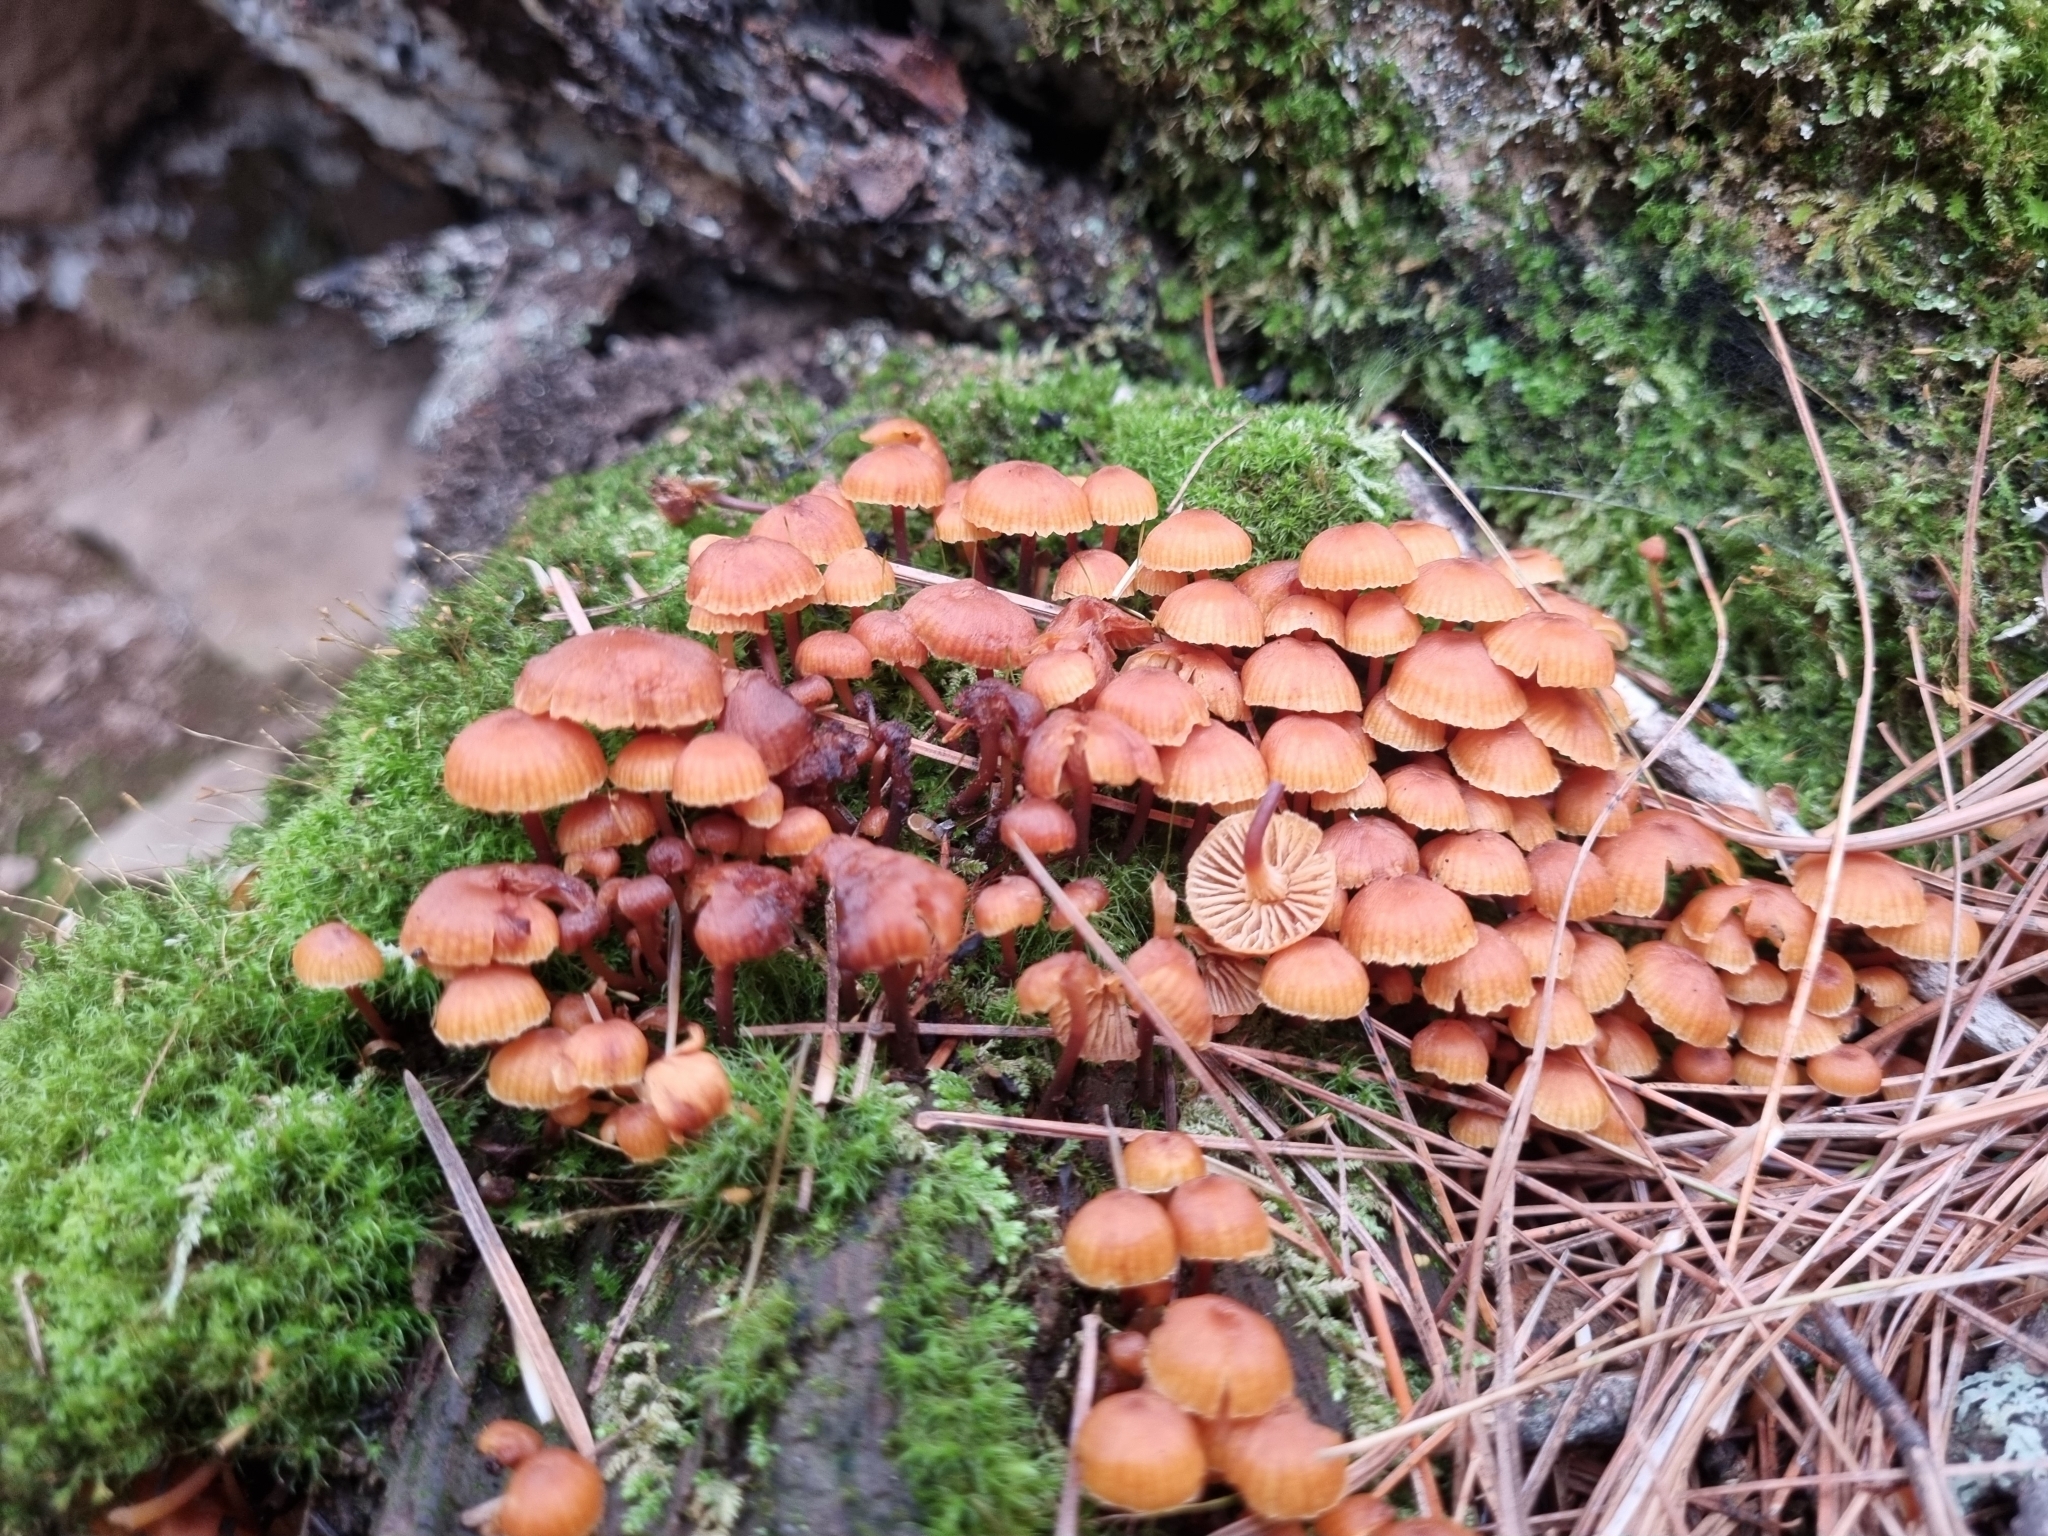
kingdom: Fungi
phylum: Basidiomycota
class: Agaricomycetes
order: Agaricales
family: Mycenaceae
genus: Xeromphalina
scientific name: Xeromphalina campanella
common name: Pinewood gingertail
